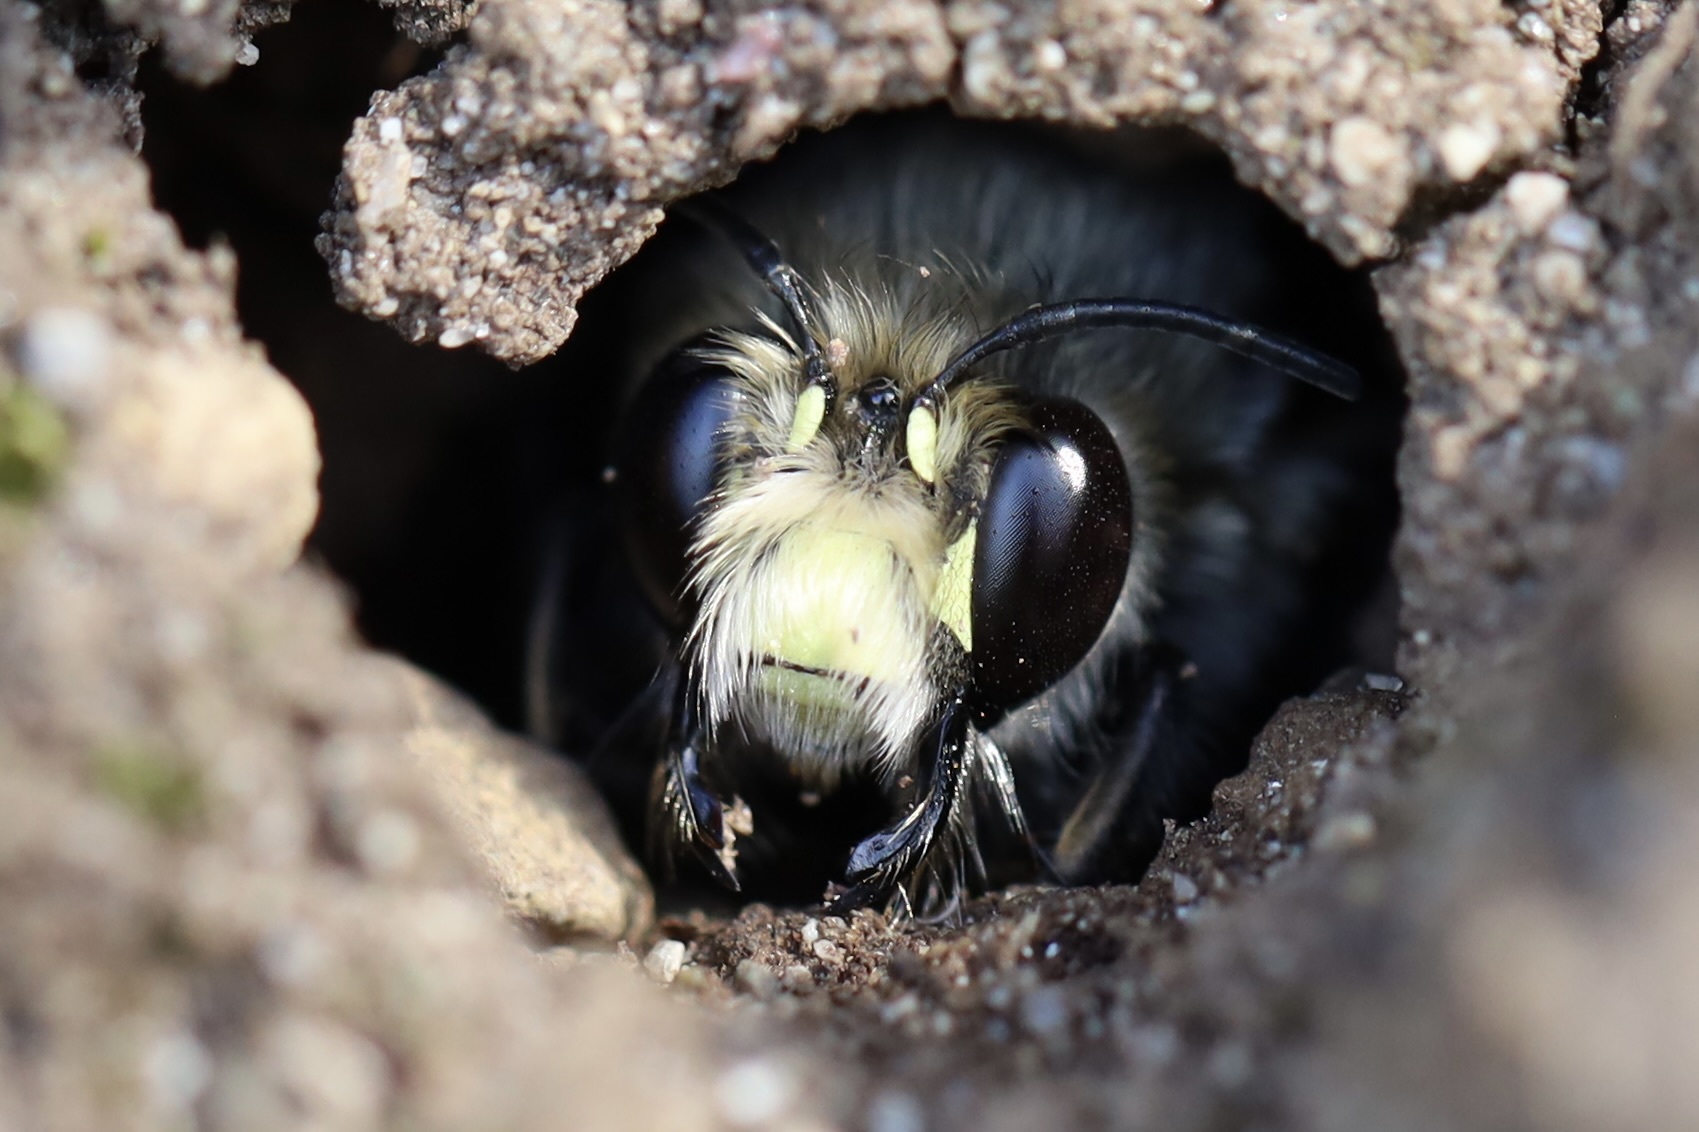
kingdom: Animalia
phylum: Arthropoda
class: Insecta
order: Hymenoptera
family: Apidae
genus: Anthophora
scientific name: Anthophora pacifica
